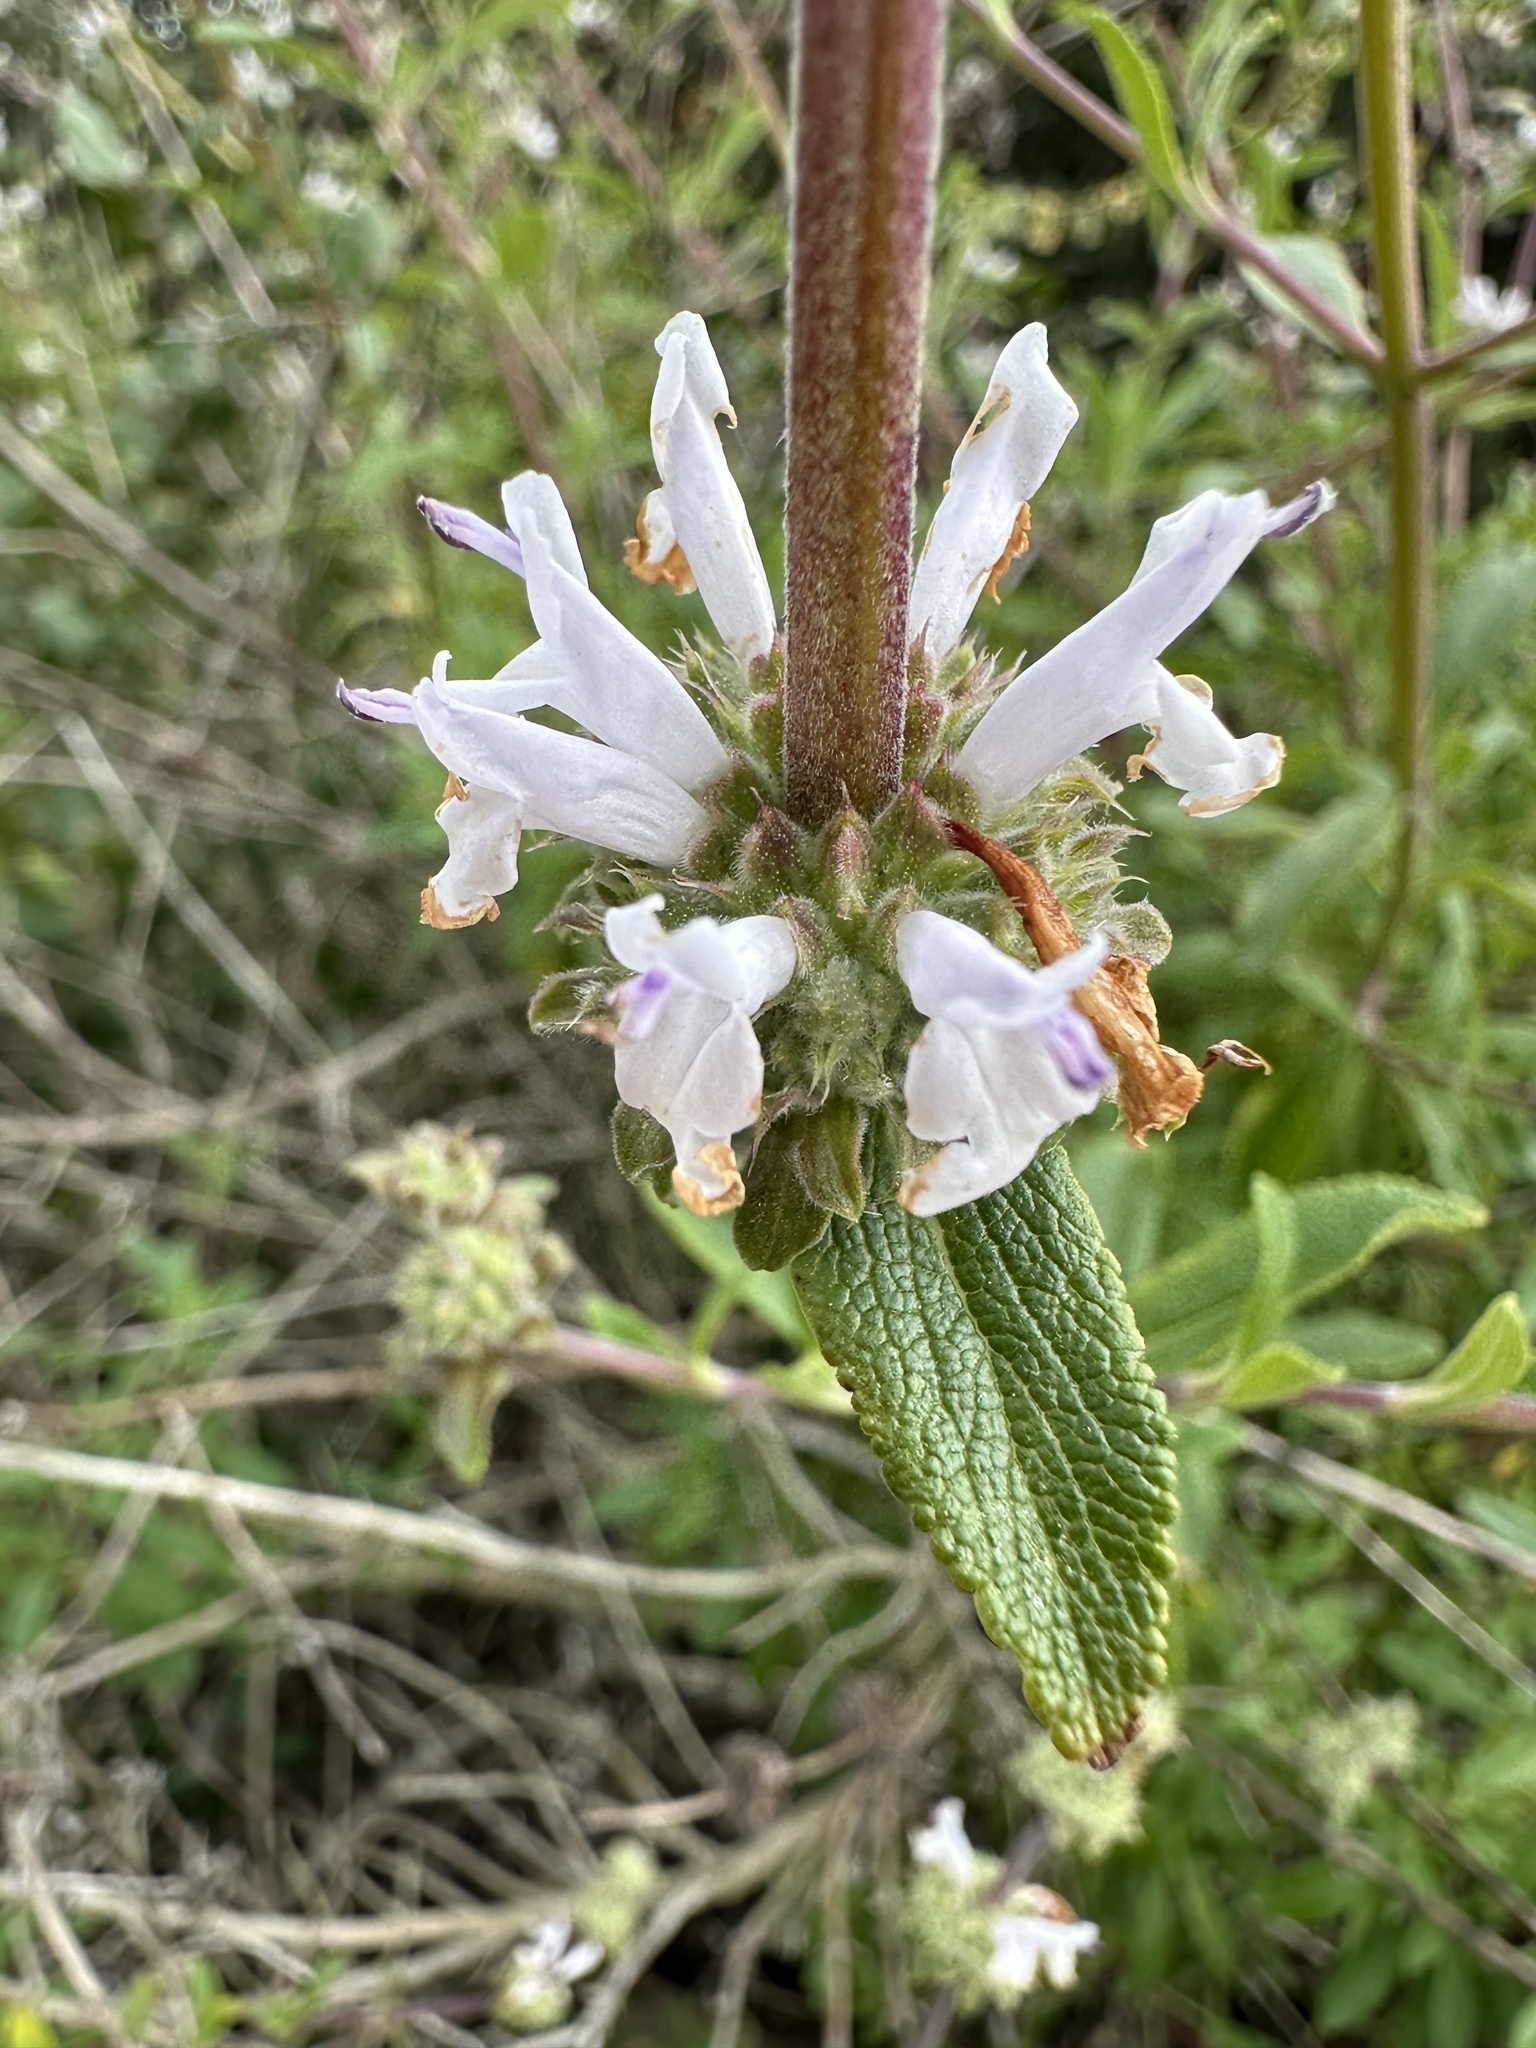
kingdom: Plantae
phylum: Tracheophyta
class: Magnoliopsida
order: Lamiales
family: Lamiaceae
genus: Salvia
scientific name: Salvia mellifera
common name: Black sage
